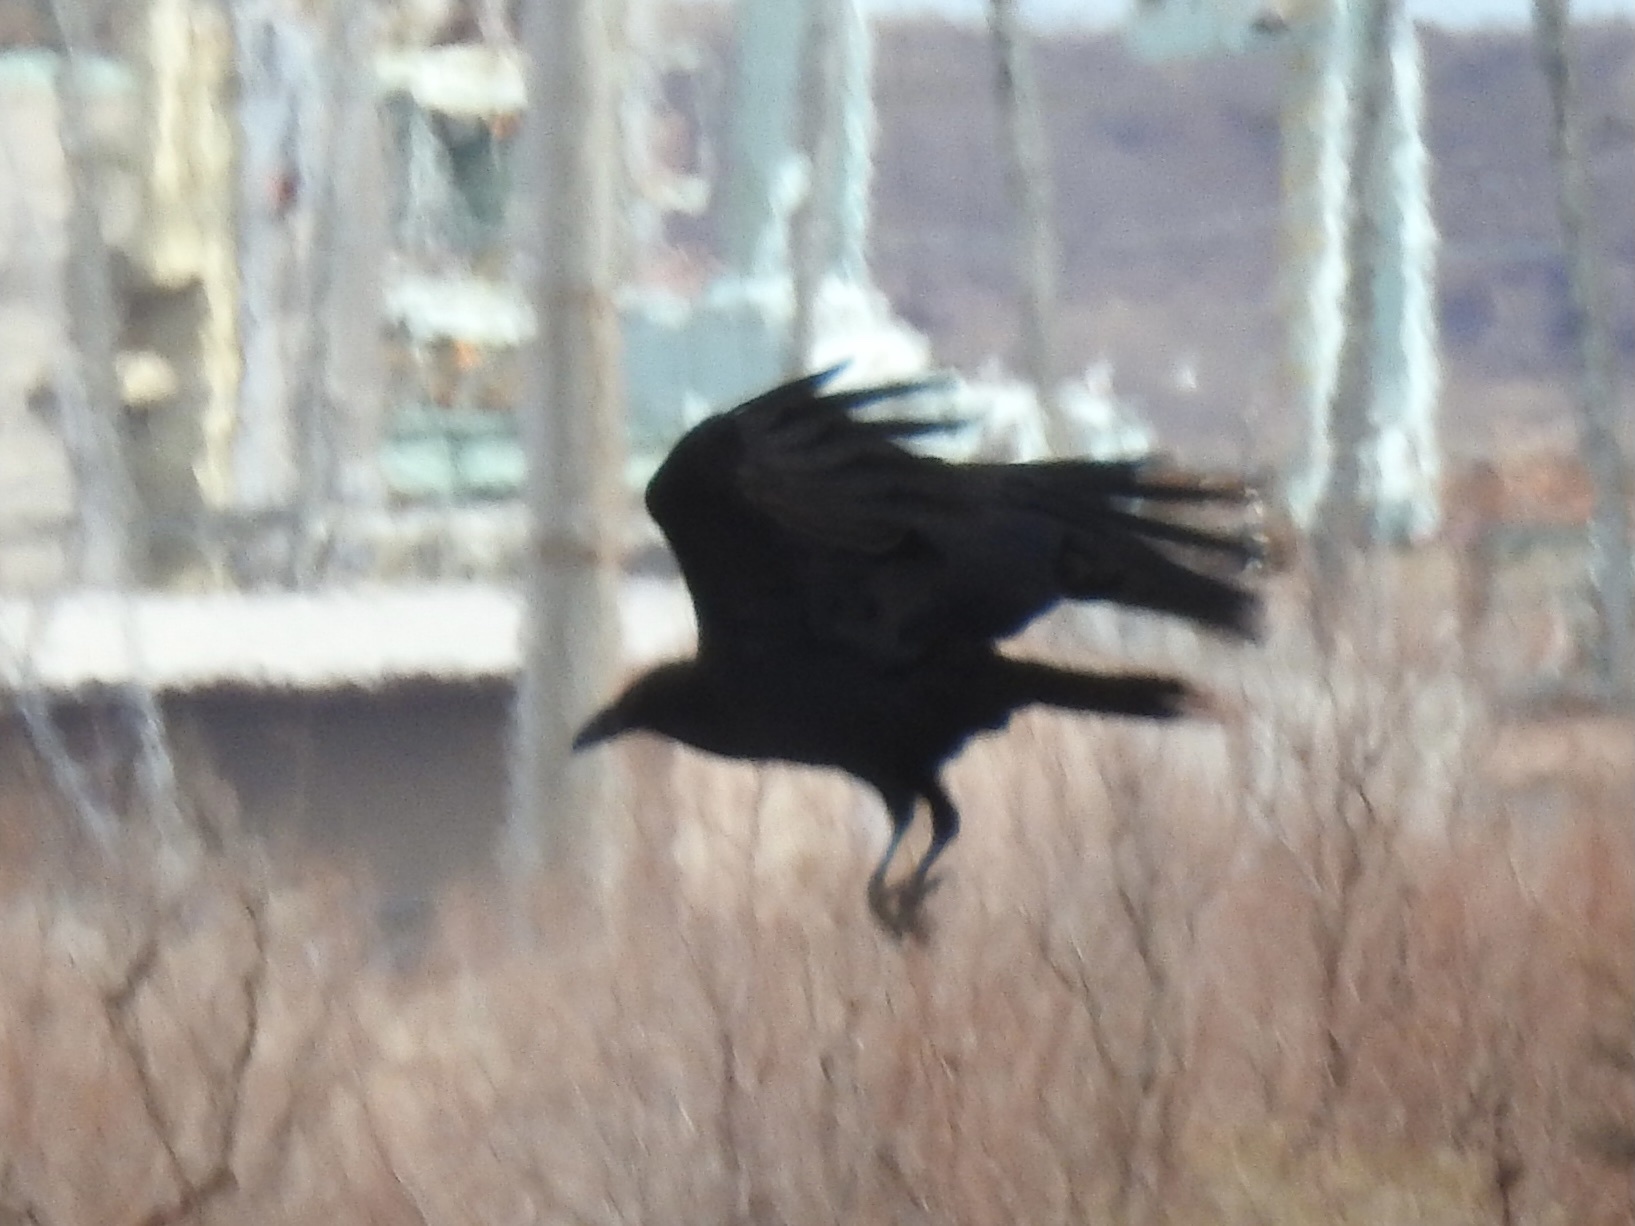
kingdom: Animalia
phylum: Chordata
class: Aves
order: Passeriformes
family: Corvidae
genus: Corvus
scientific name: Corvus corax
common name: Common raven
